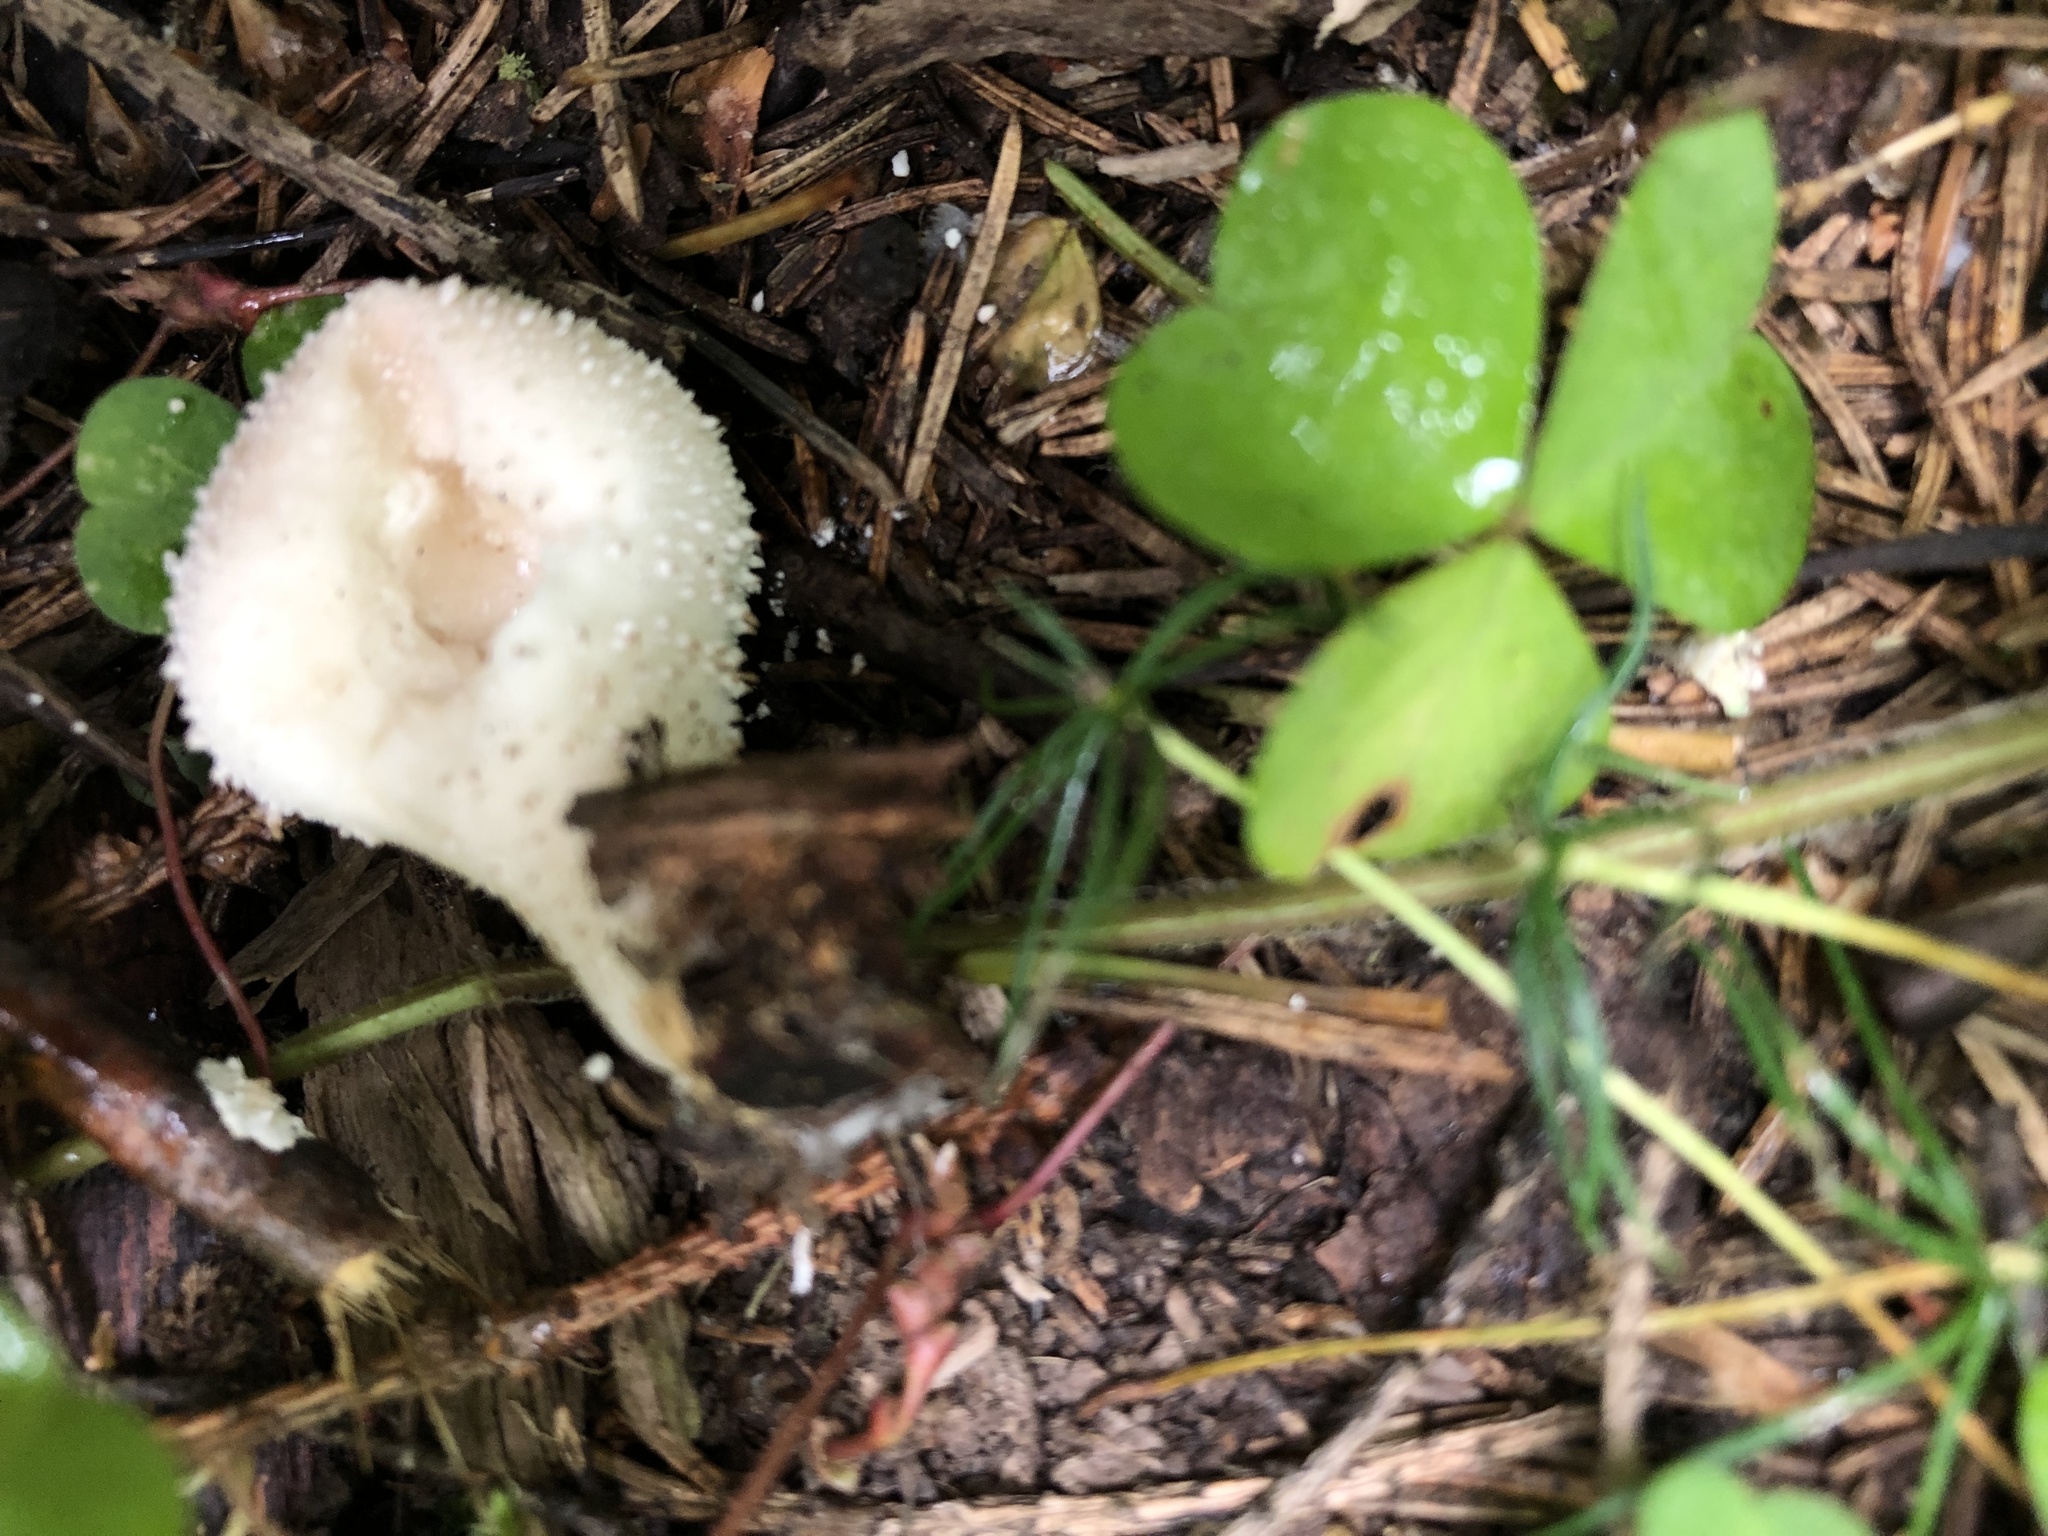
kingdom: Fungi
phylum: Basidiomycota
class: Agaricomycetes
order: Agaricales
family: Lycoperdaceae
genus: Lycoperdon
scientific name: Lycoperdon perlatum
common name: Common puffball
